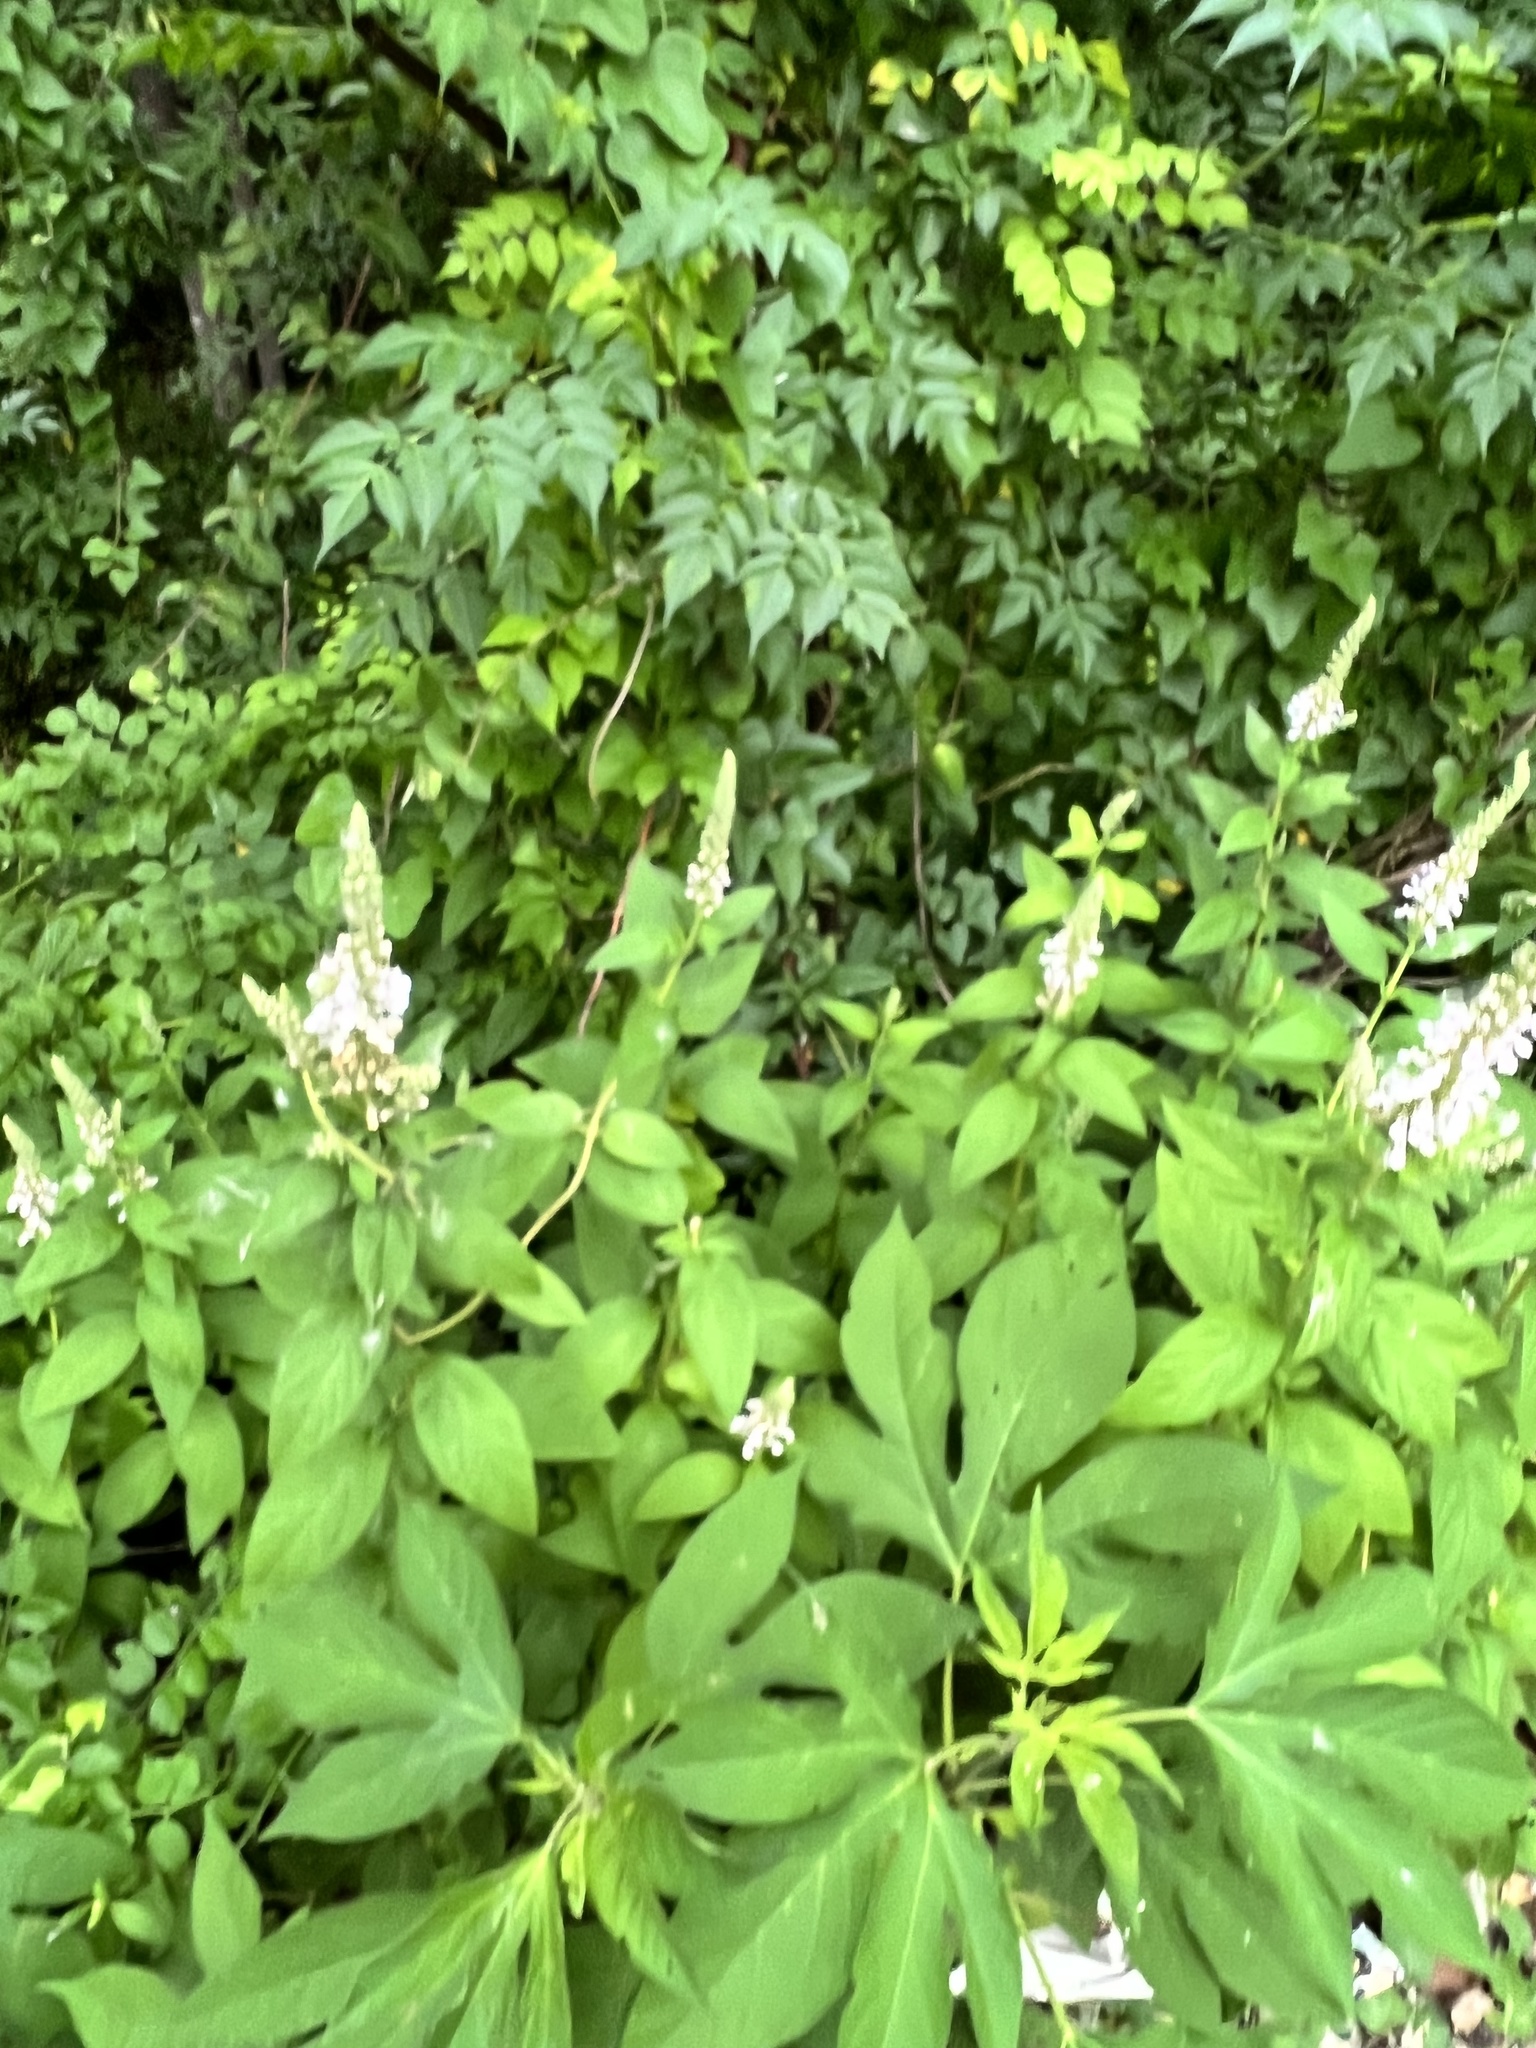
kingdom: Plantae
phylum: Tracheophyta
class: Magnoliopsida
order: Lamiales
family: Lamiaceae
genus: Teucrium
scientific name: Teucrium canadense
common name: American germander
